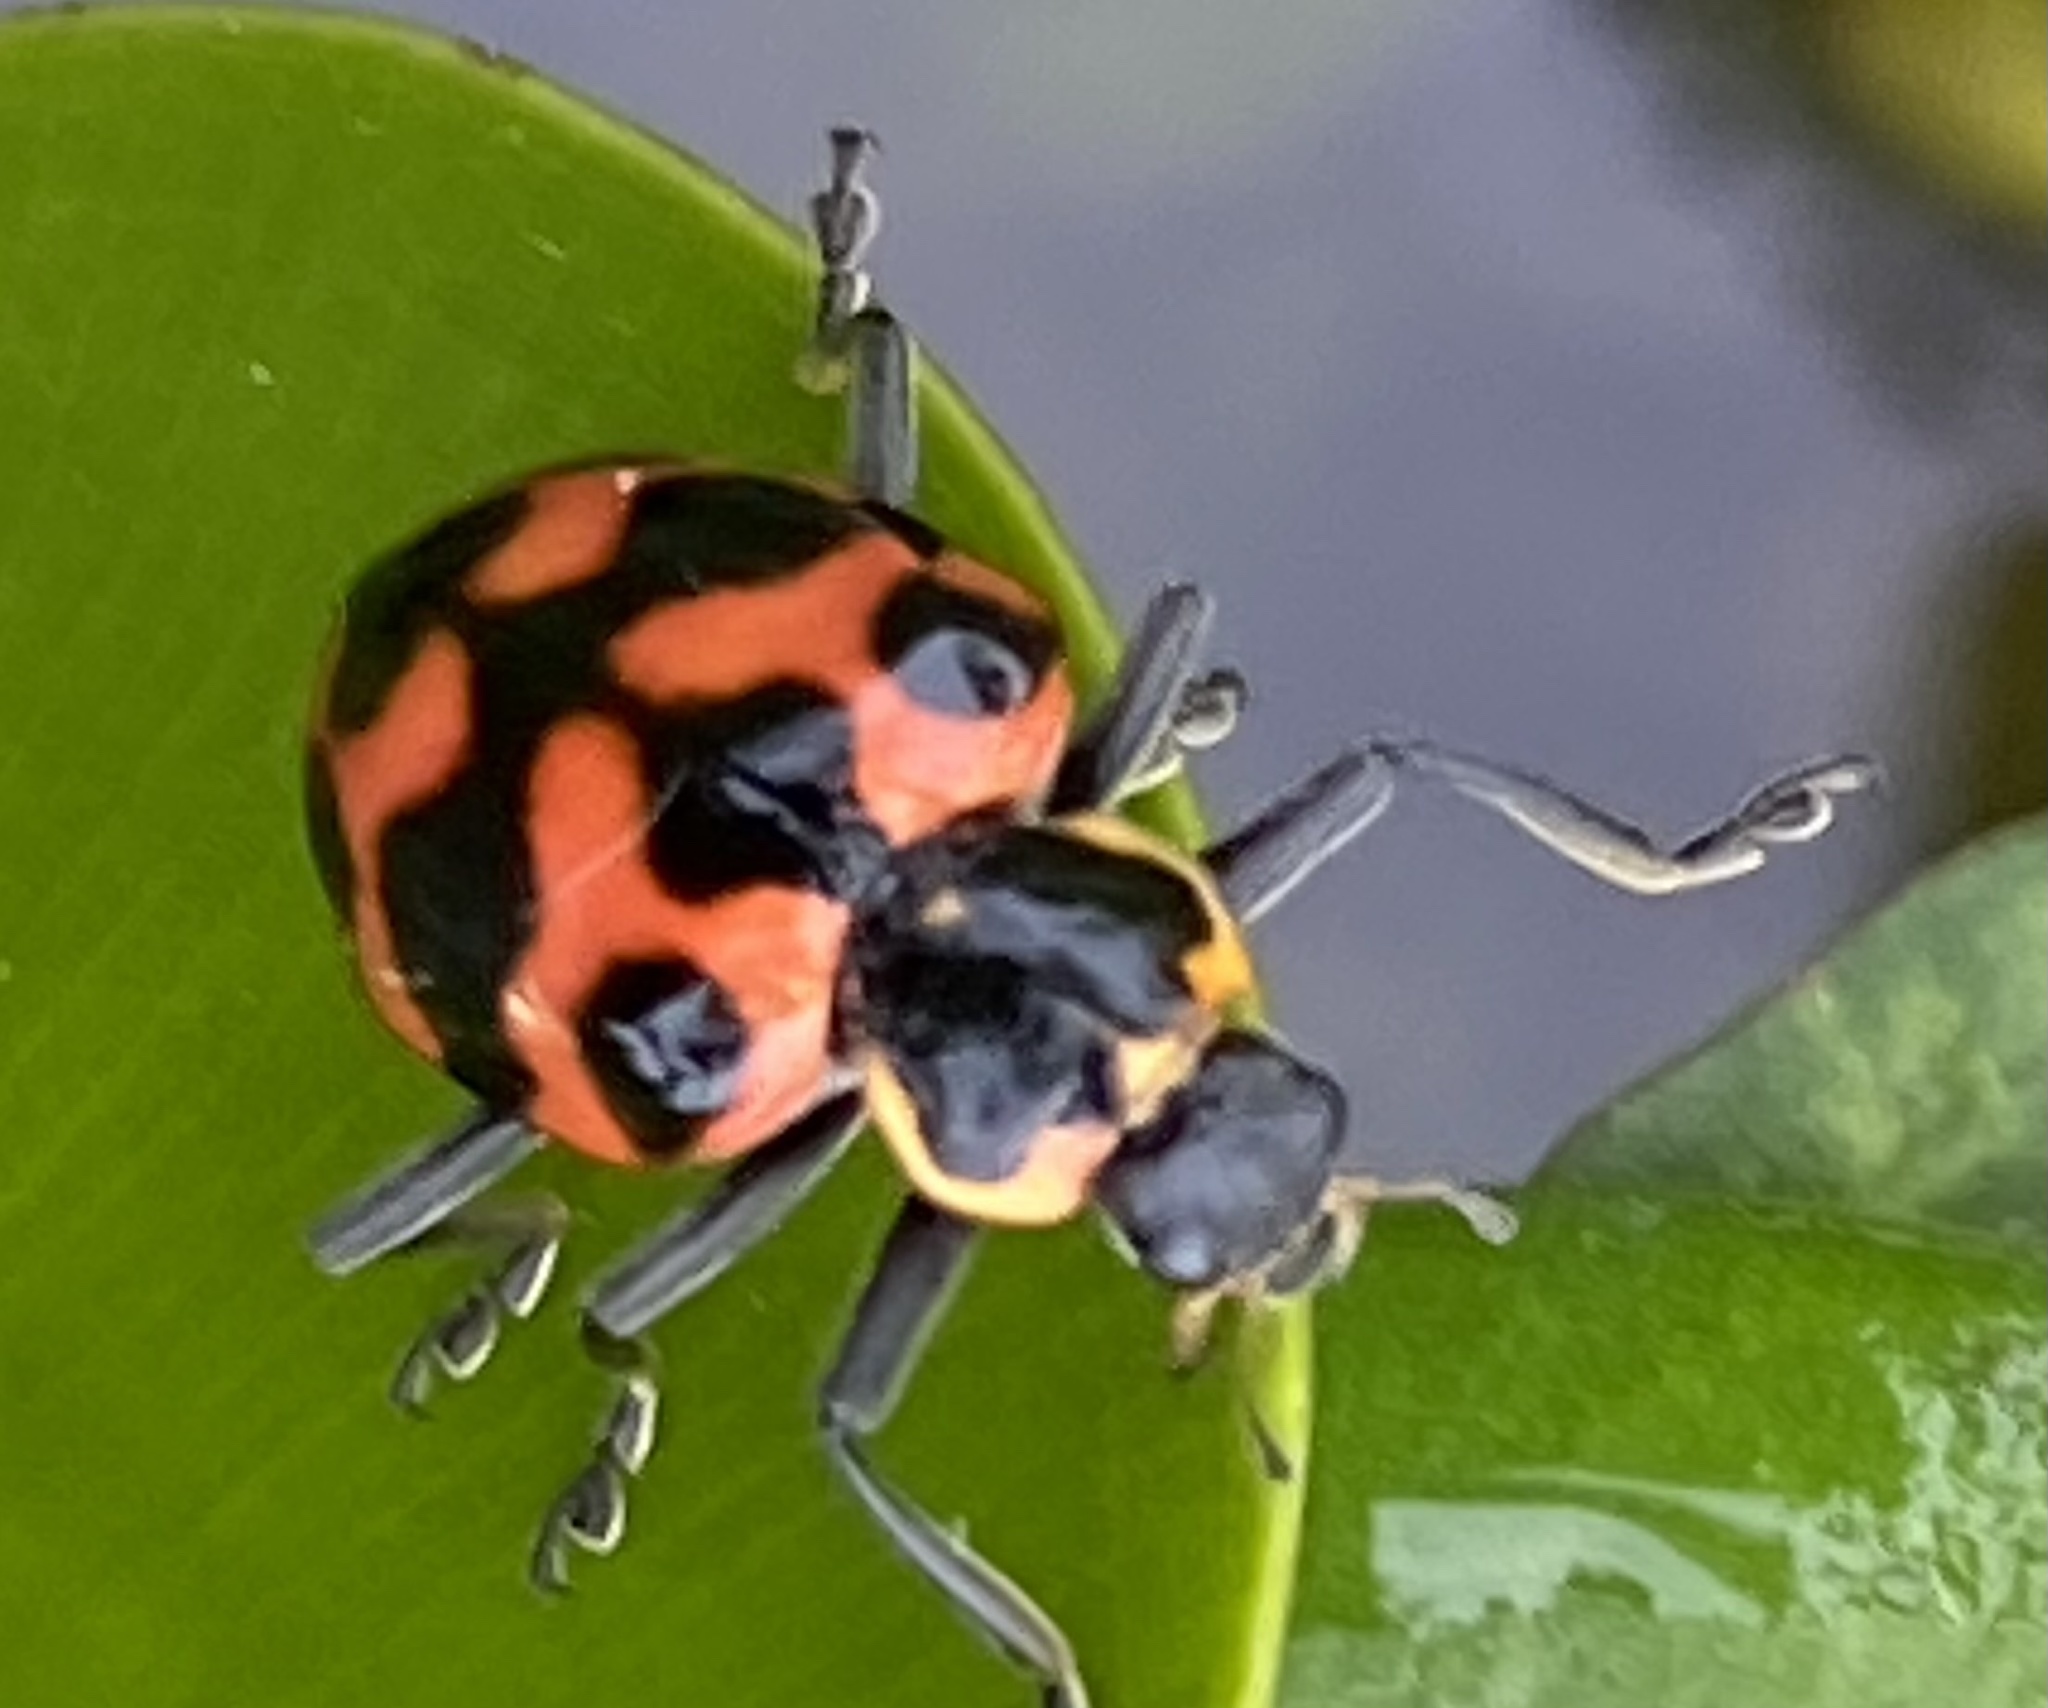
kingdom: Animalia
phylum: Arthropoda
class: Insecta
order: Coleoptera
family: Coccinellidae
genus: Coleomegilla
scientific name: Coleomegilla
